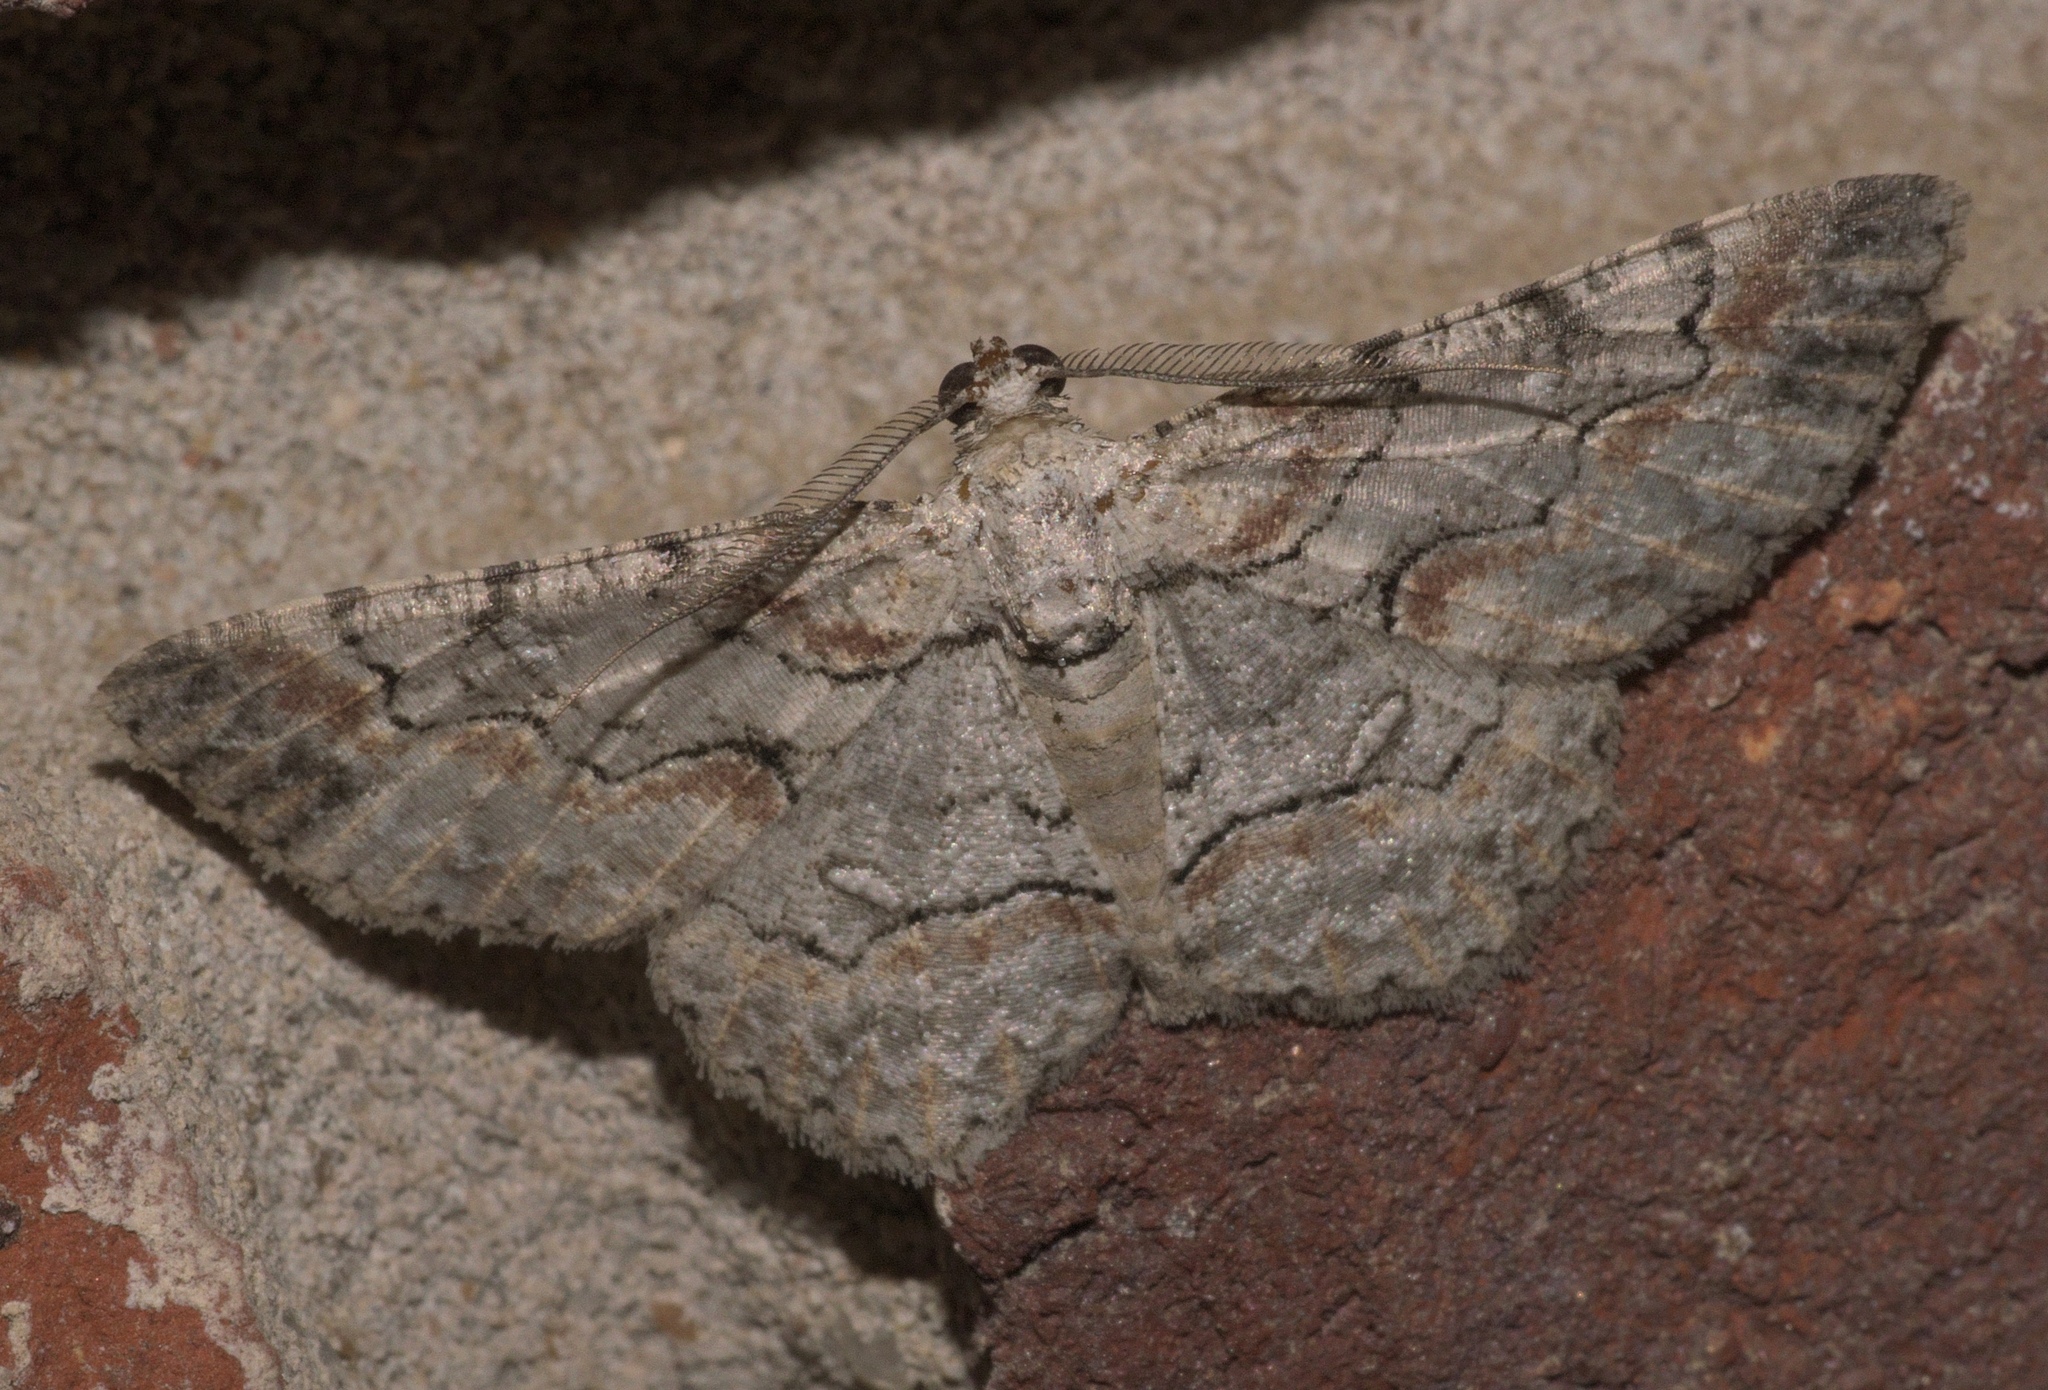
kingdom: Animalia
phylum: Arthropoda
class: Insecta
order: Lepidoptera
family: Geometridae
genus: Iridopsis
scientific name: Iridopsis defectaria
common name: Brown-shaded gray
